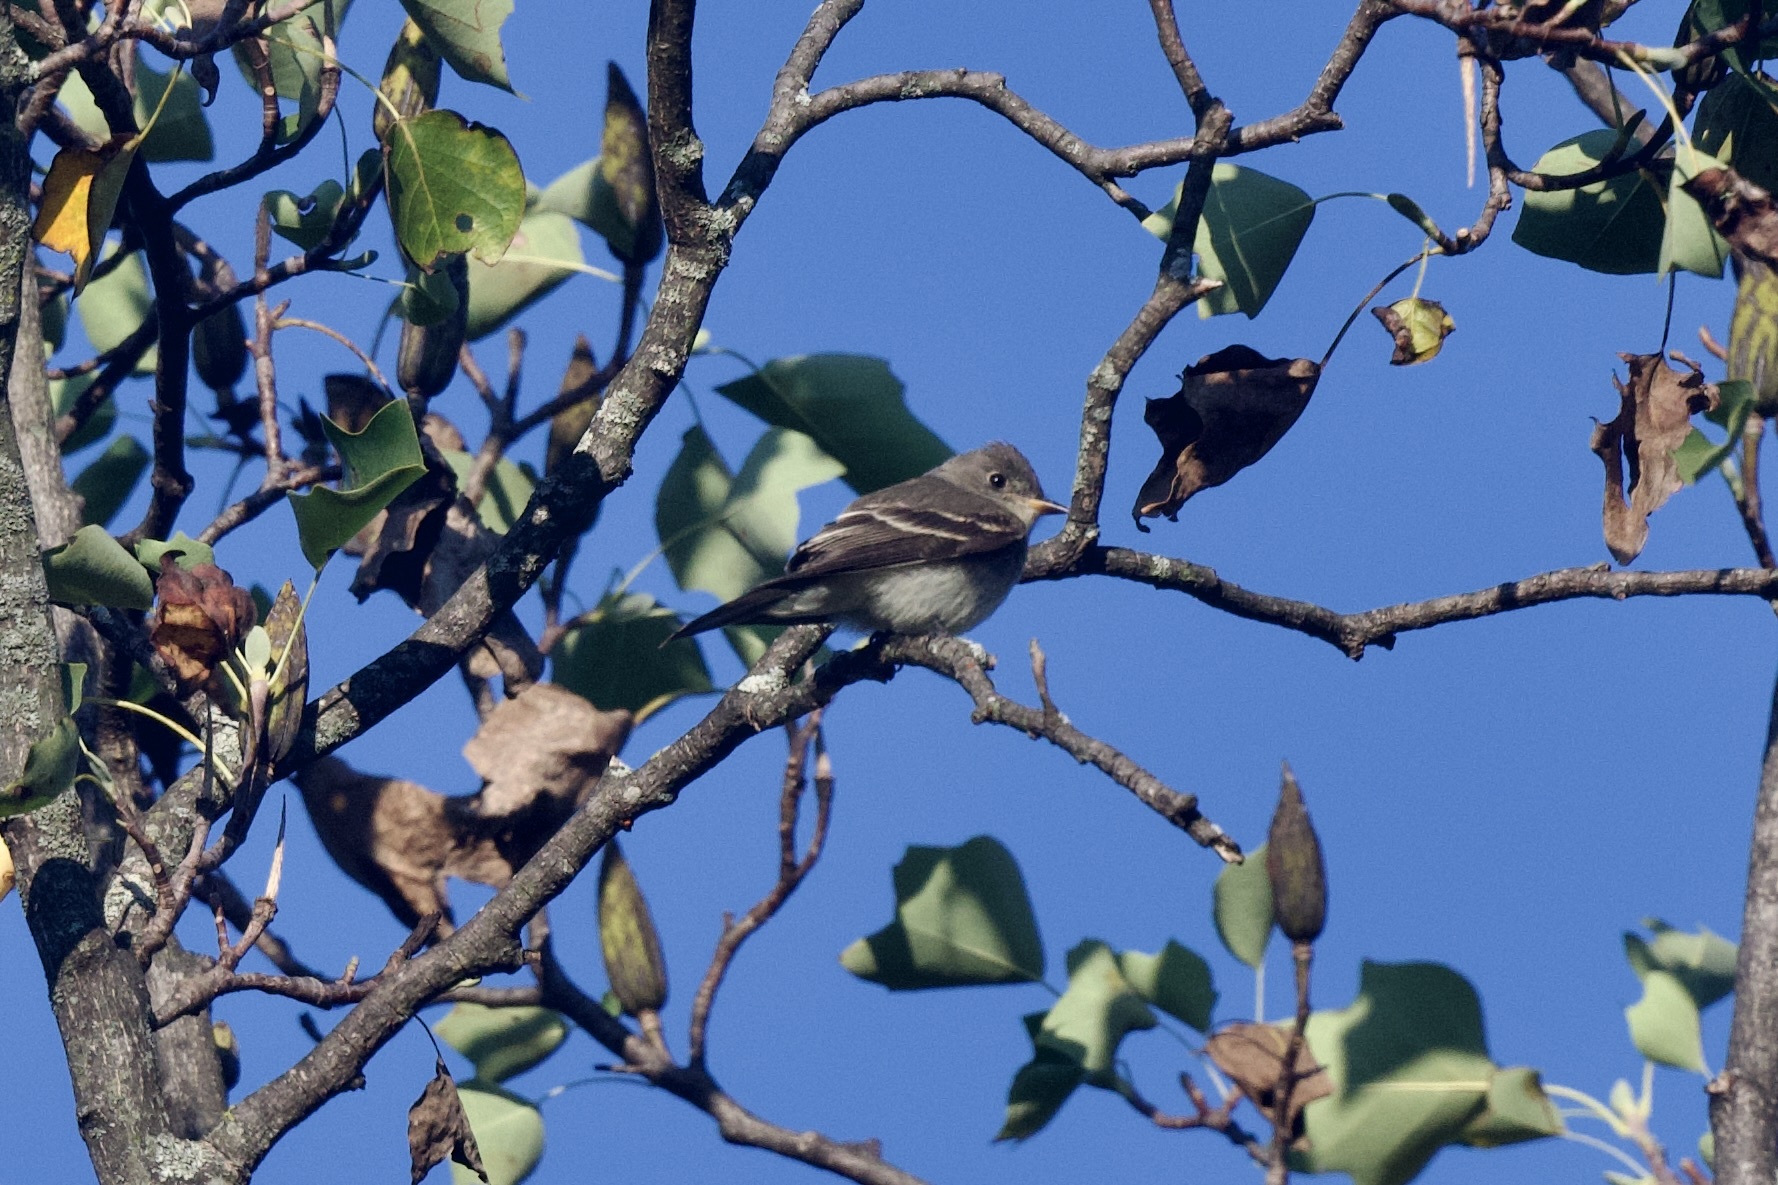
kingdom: Animalia
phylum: Chordata
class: Aves
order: Passeriformes
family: Tyrannidae
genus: Contopus
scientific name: Contopus virens
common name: Eastern wood-pewee
